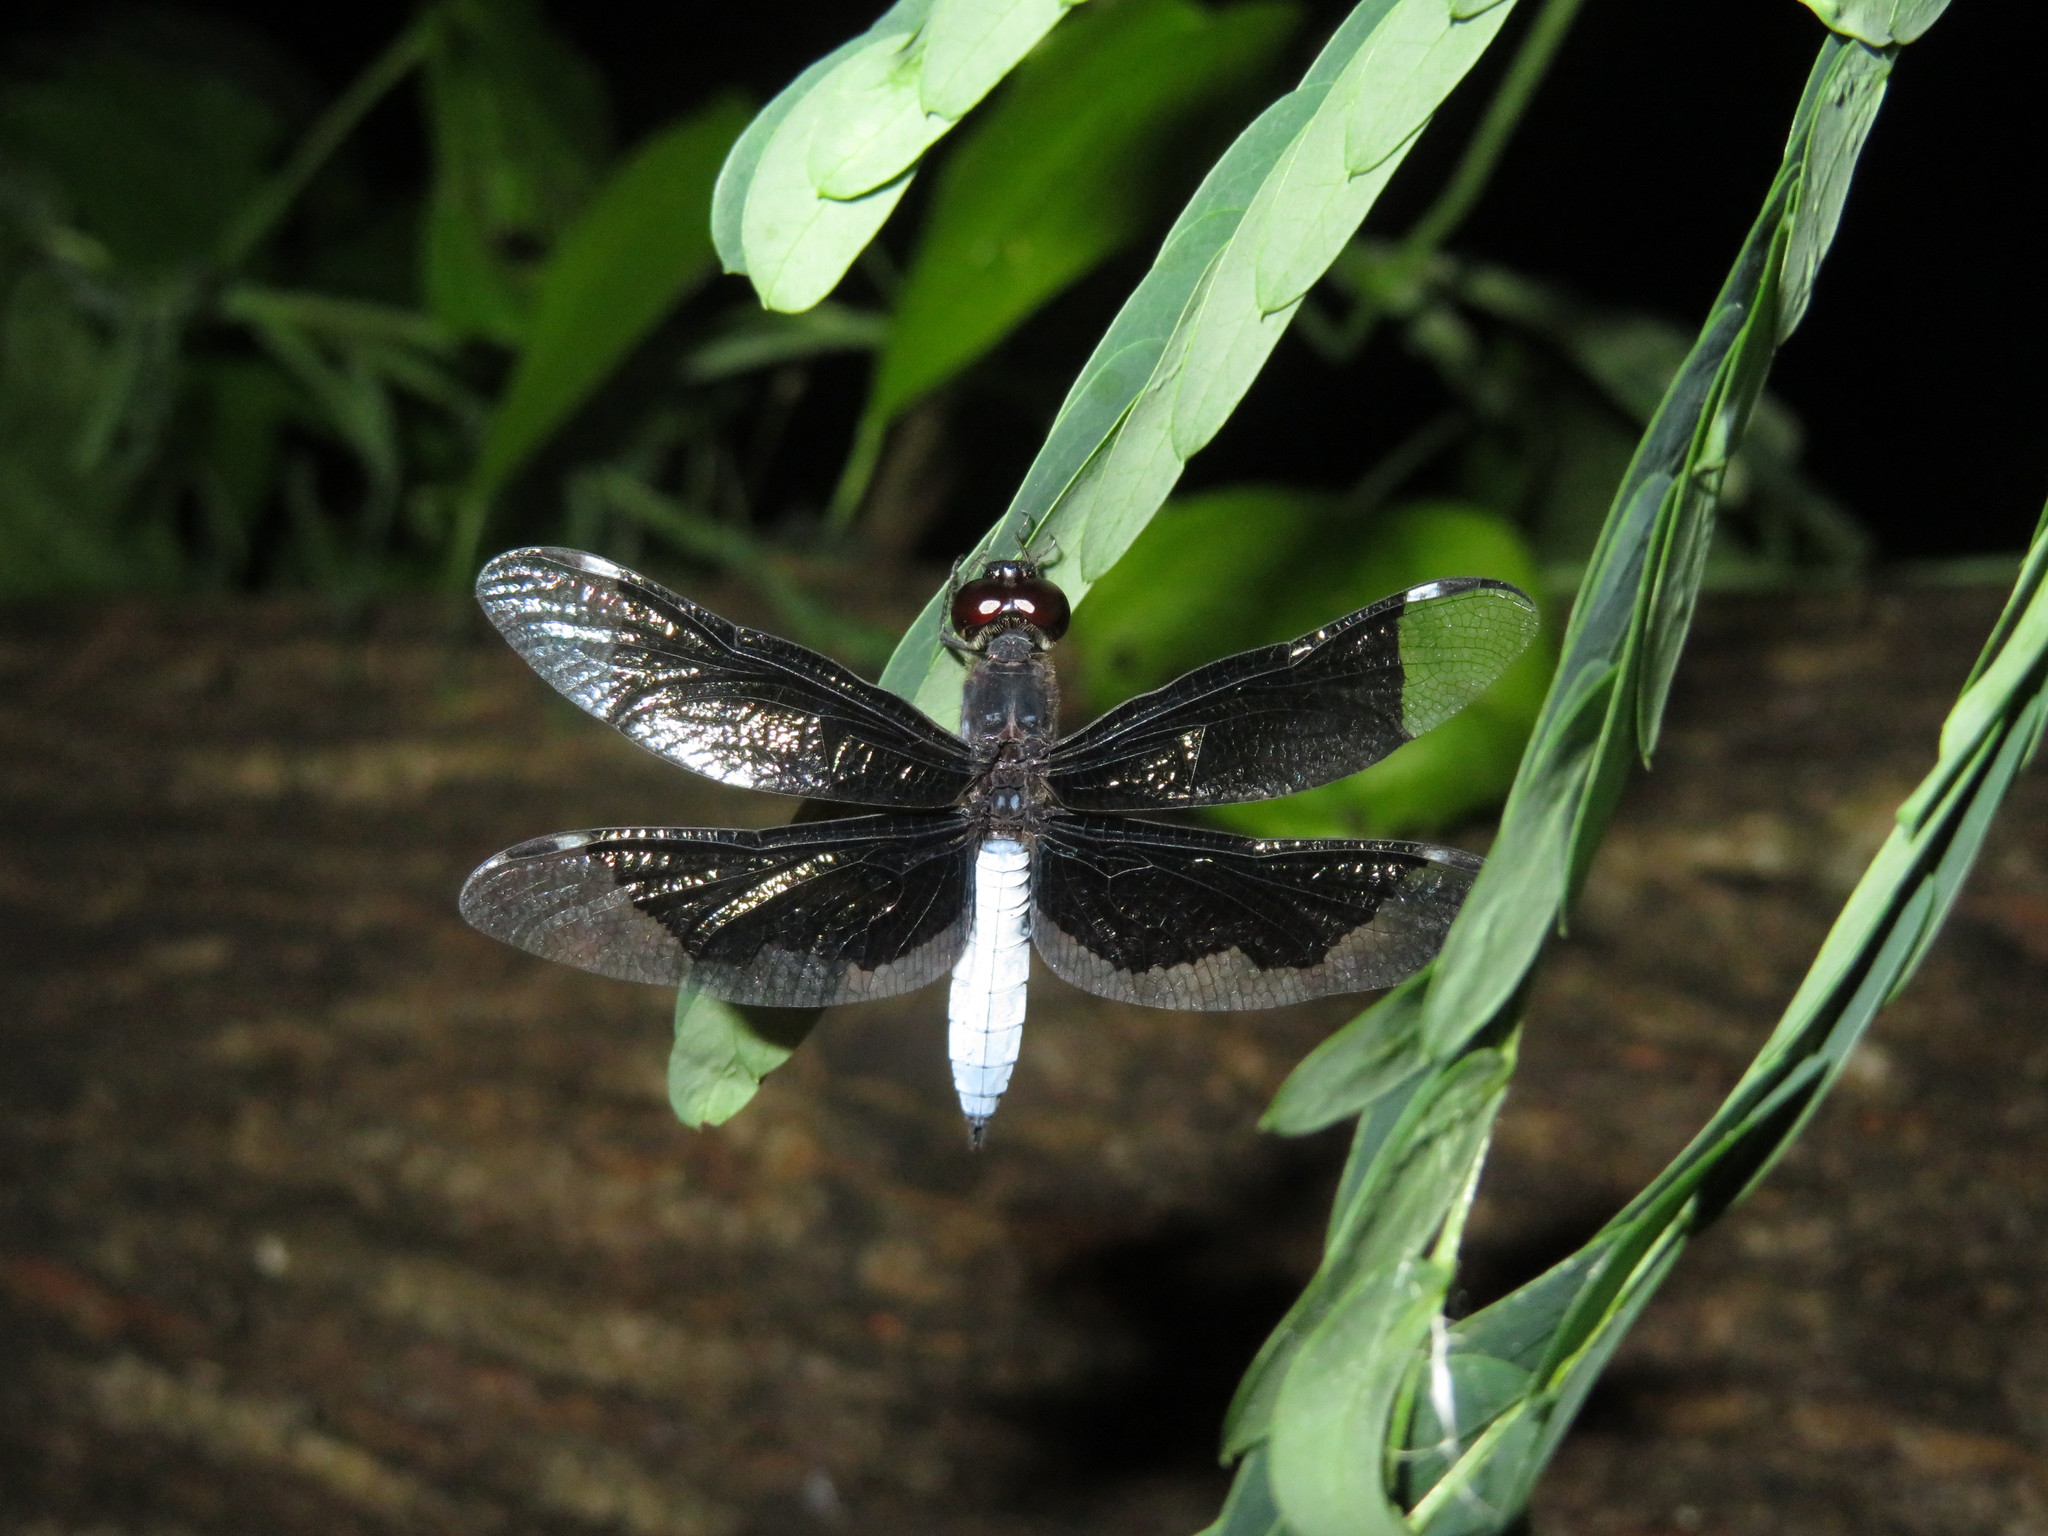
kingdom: Animalia
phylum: Arthropoda
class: Insecta
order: Odonata
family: Libellulidae
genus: Palpopleura
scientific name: Palpopleura lucia
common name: Lucia widow
